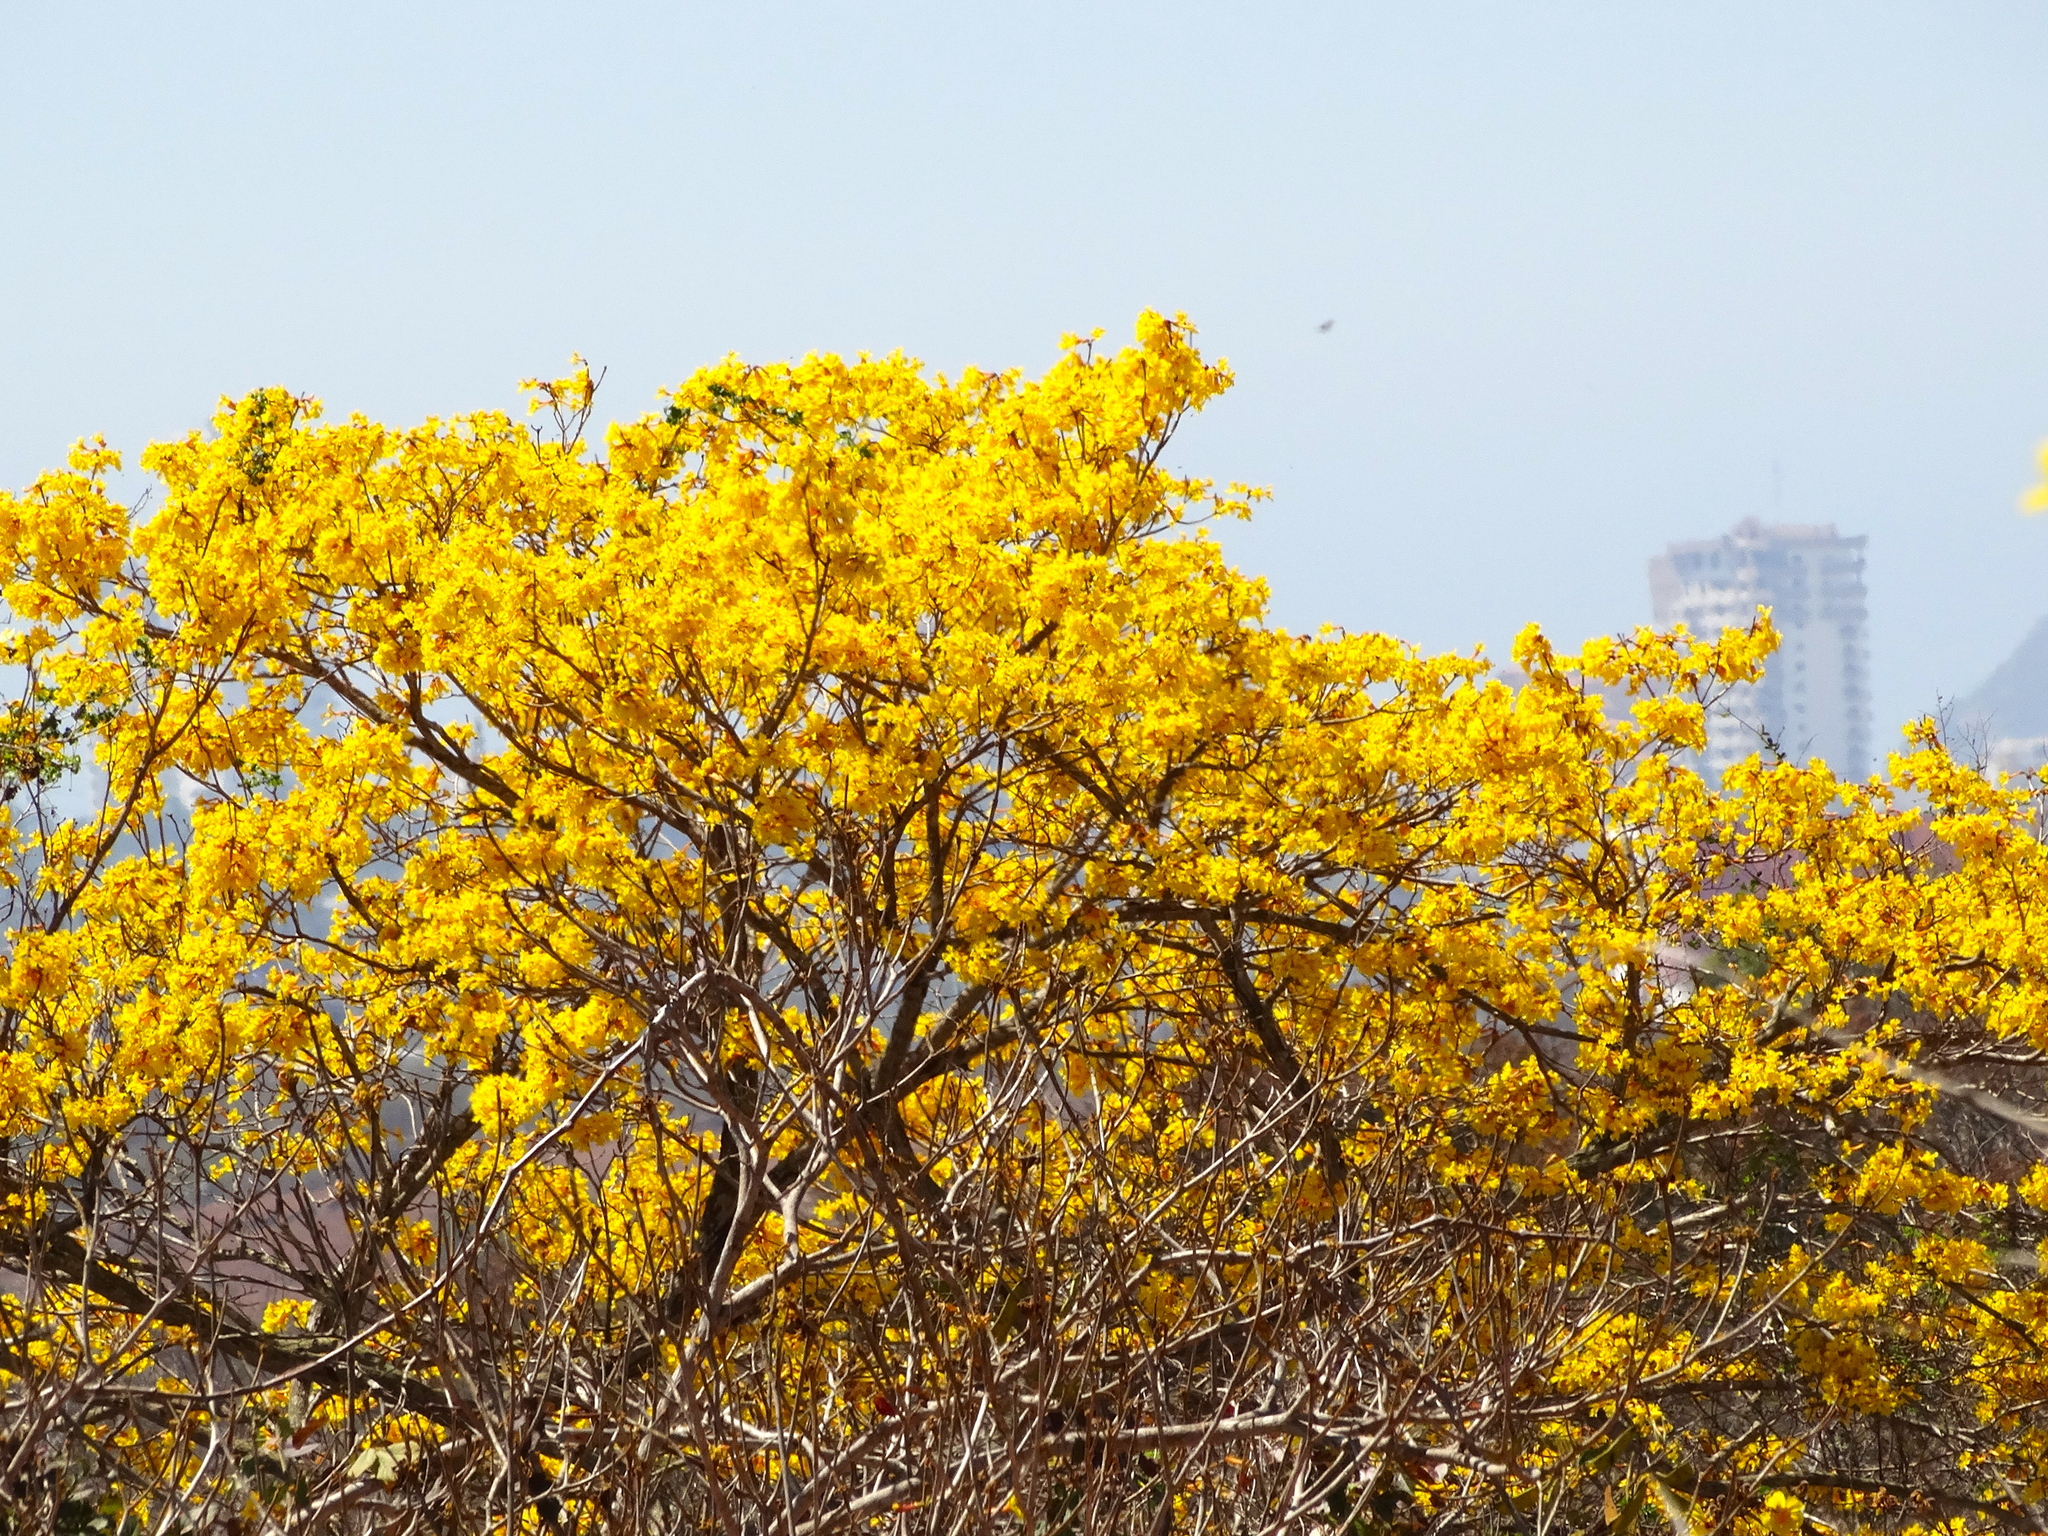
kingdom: Plantae
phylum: Tracheophyta
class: Magnoliopsida
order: Lamiales
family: Bignoniaceae
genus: Handroanthus
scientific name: Handroanthus chrysanthus
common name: Trumpet trees
